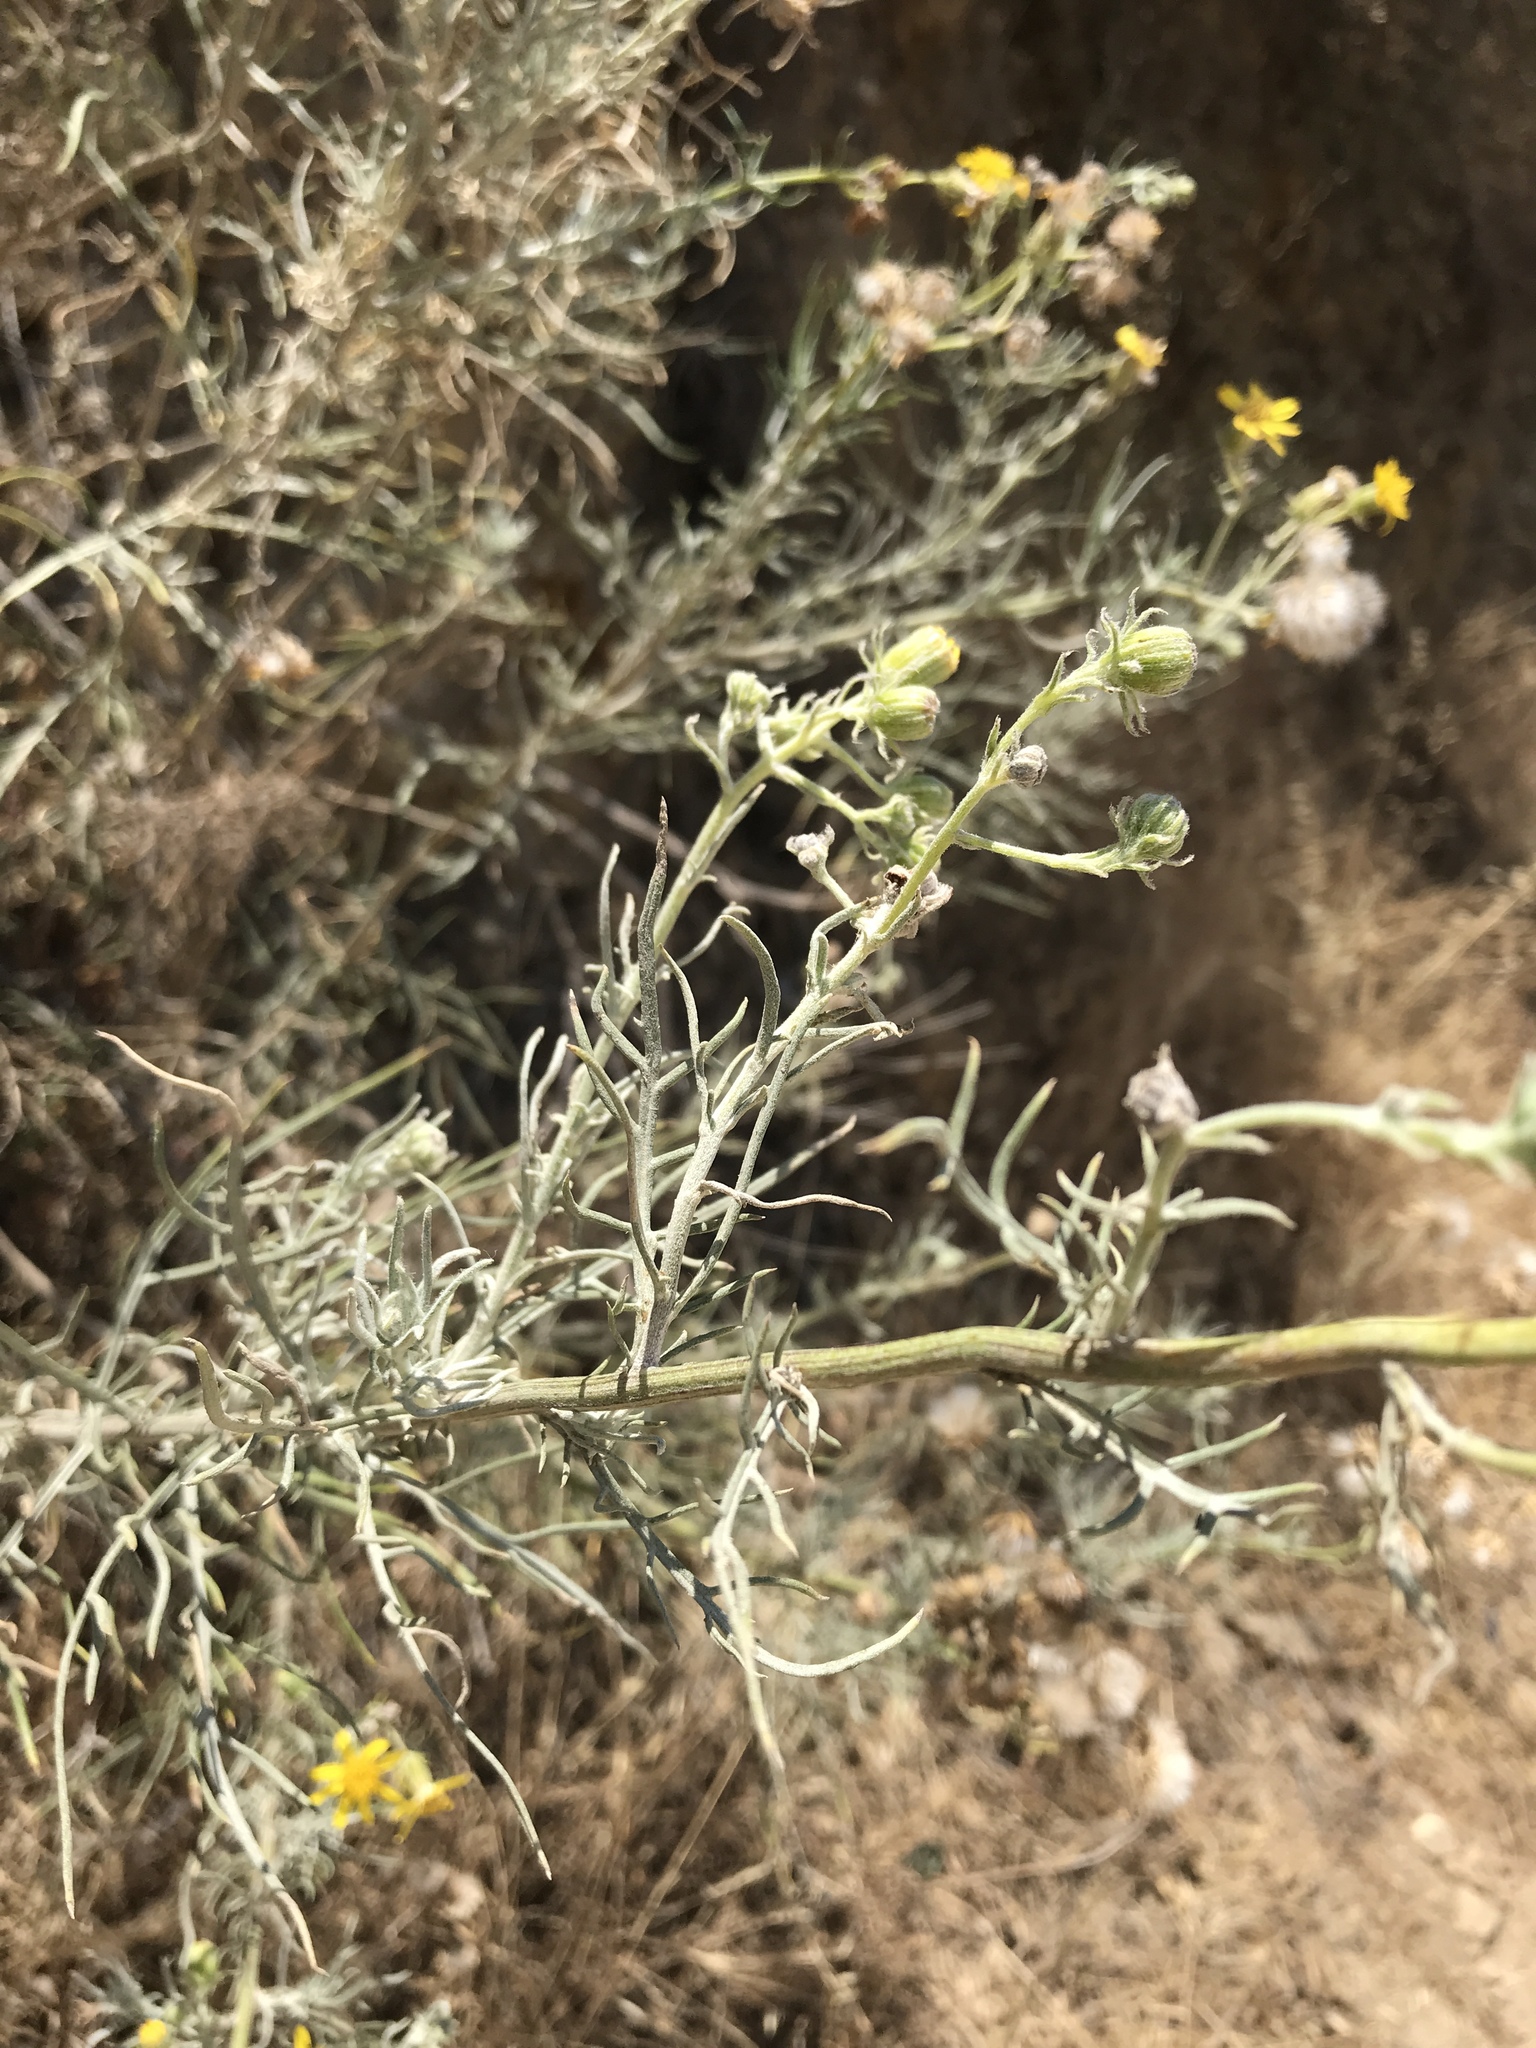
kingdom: Plantae
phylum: Tracheophyta
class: Magnoliopsida
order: Asterales
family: Asteraceae
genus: Senecio
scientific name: Senecio flaccidus
